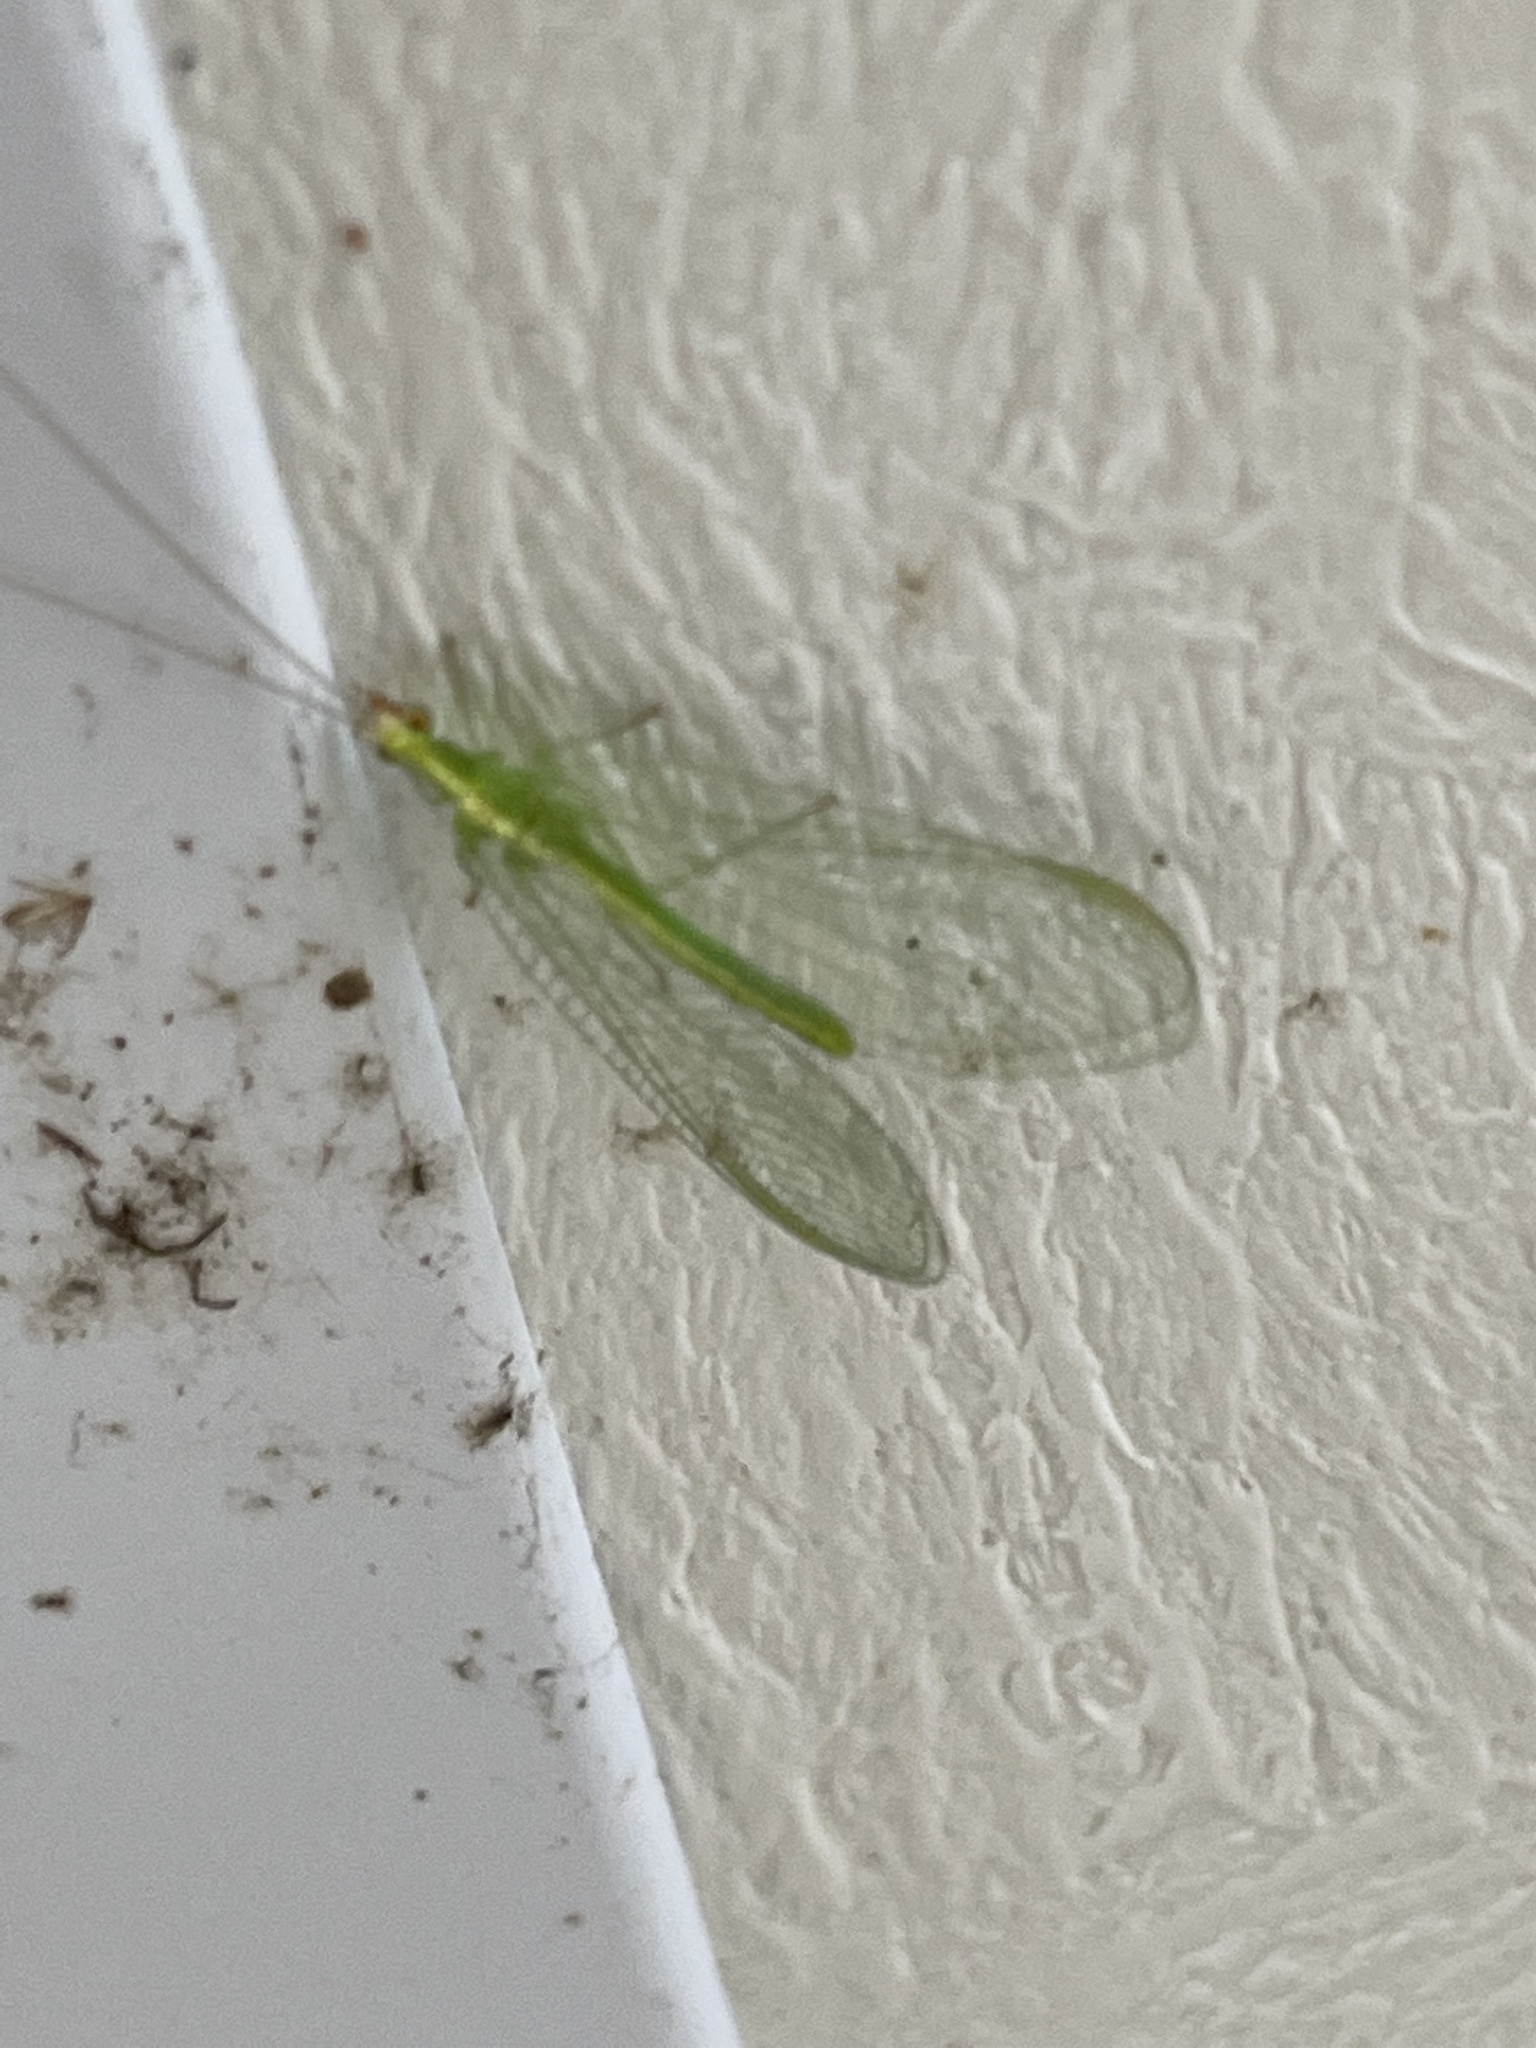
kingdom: Animalia
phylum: Arthropoda
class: Insecta
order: Neuroptera
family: Chrysopidae
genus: Chrysoperla
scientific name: Chrysoperla
